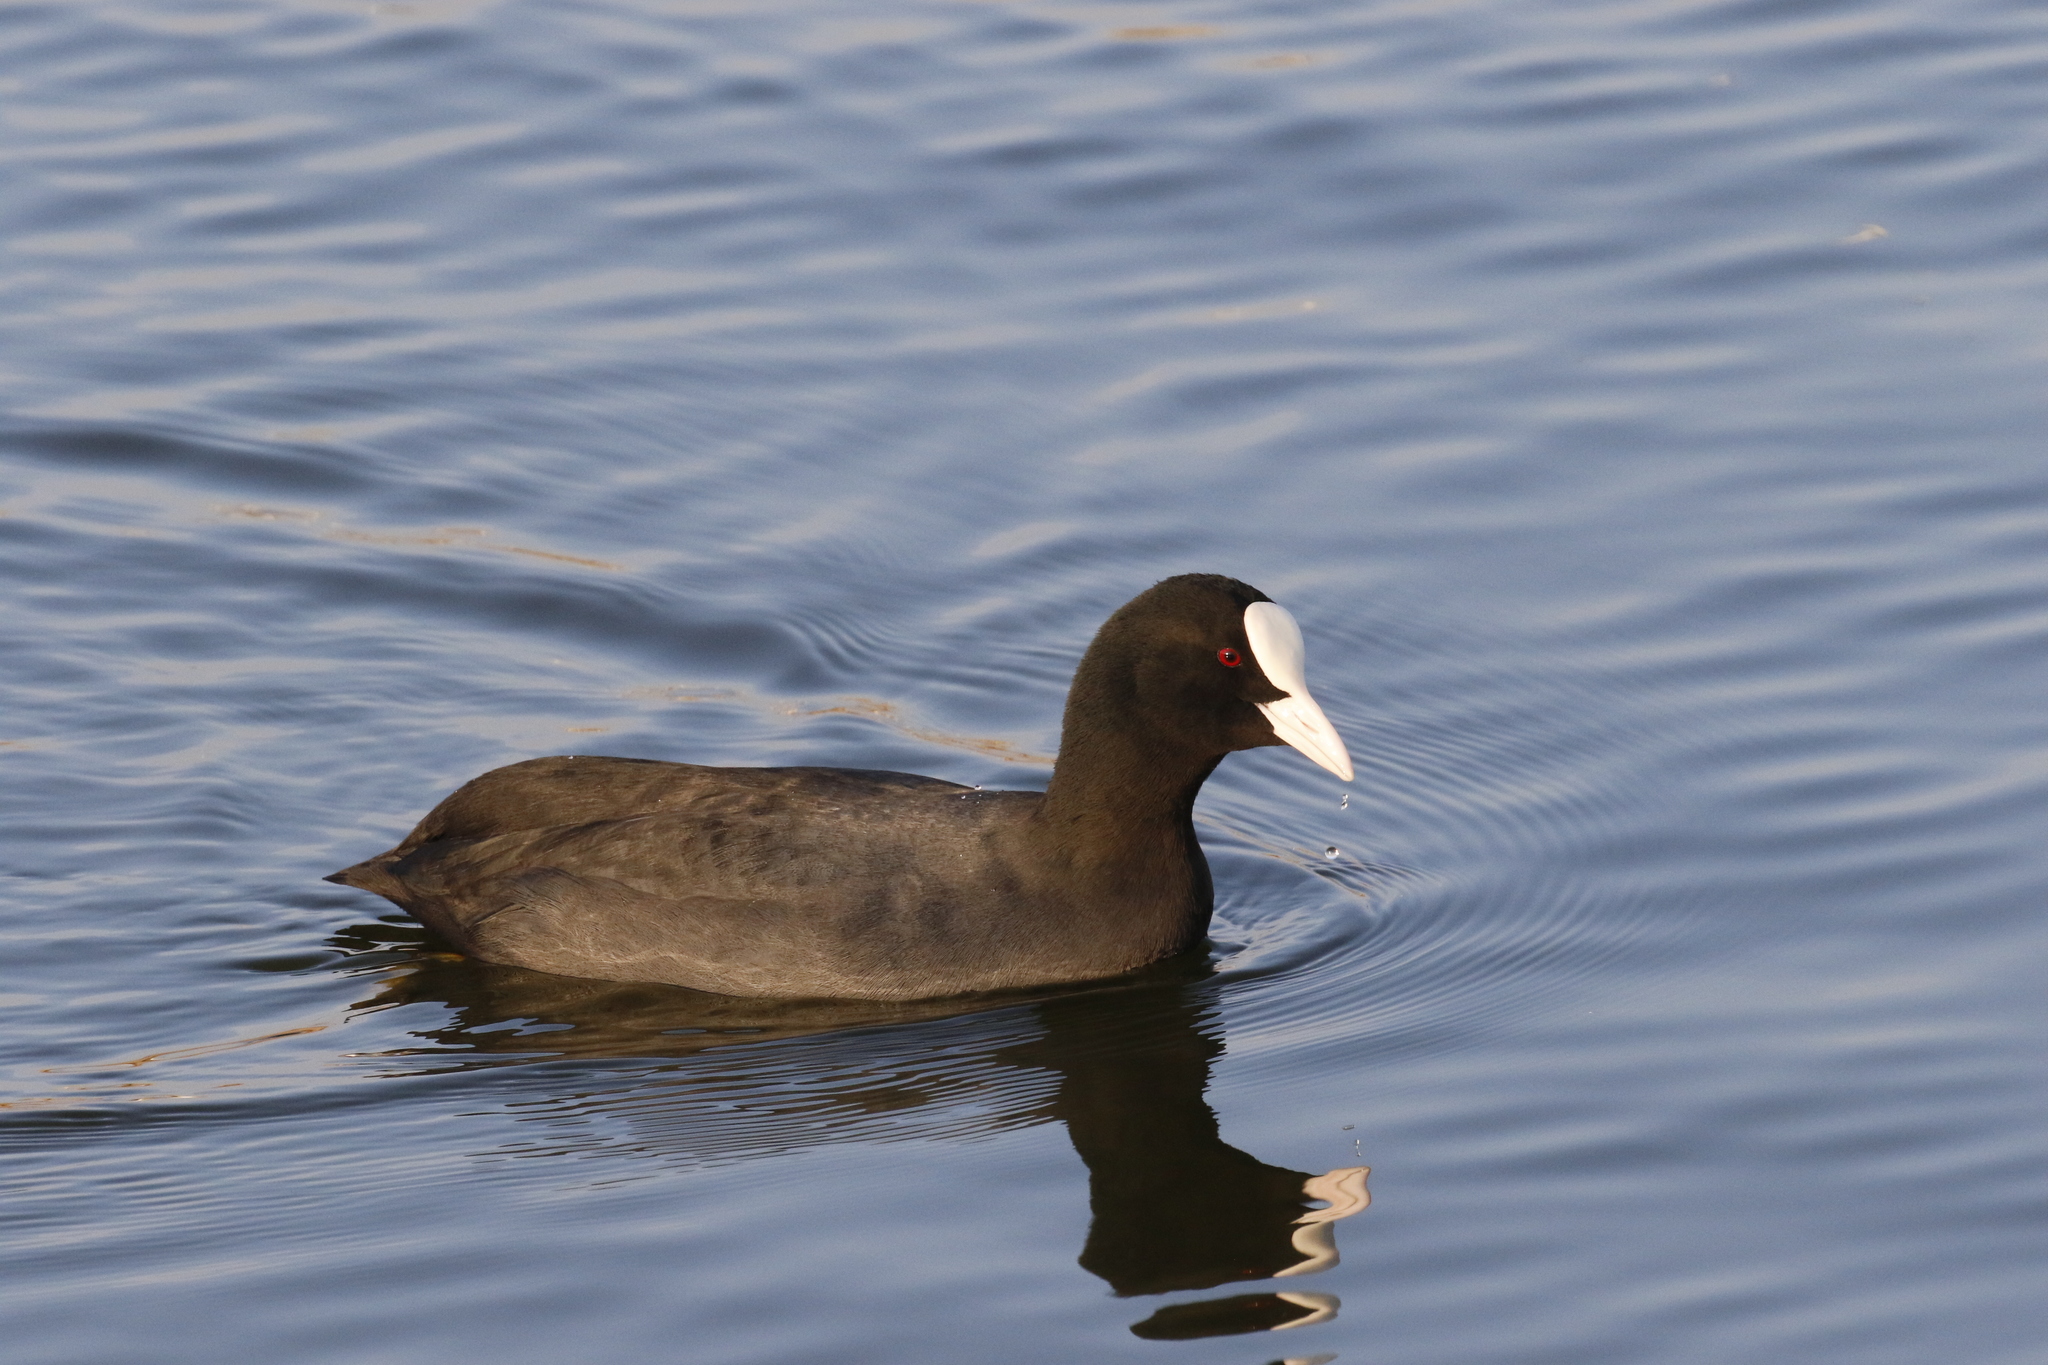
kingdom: Animalia
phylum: Chordata
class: Aves
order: Gruiformes
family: Rallidae
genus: Fulica
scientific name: Fulica atra
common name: Eurasian coot
